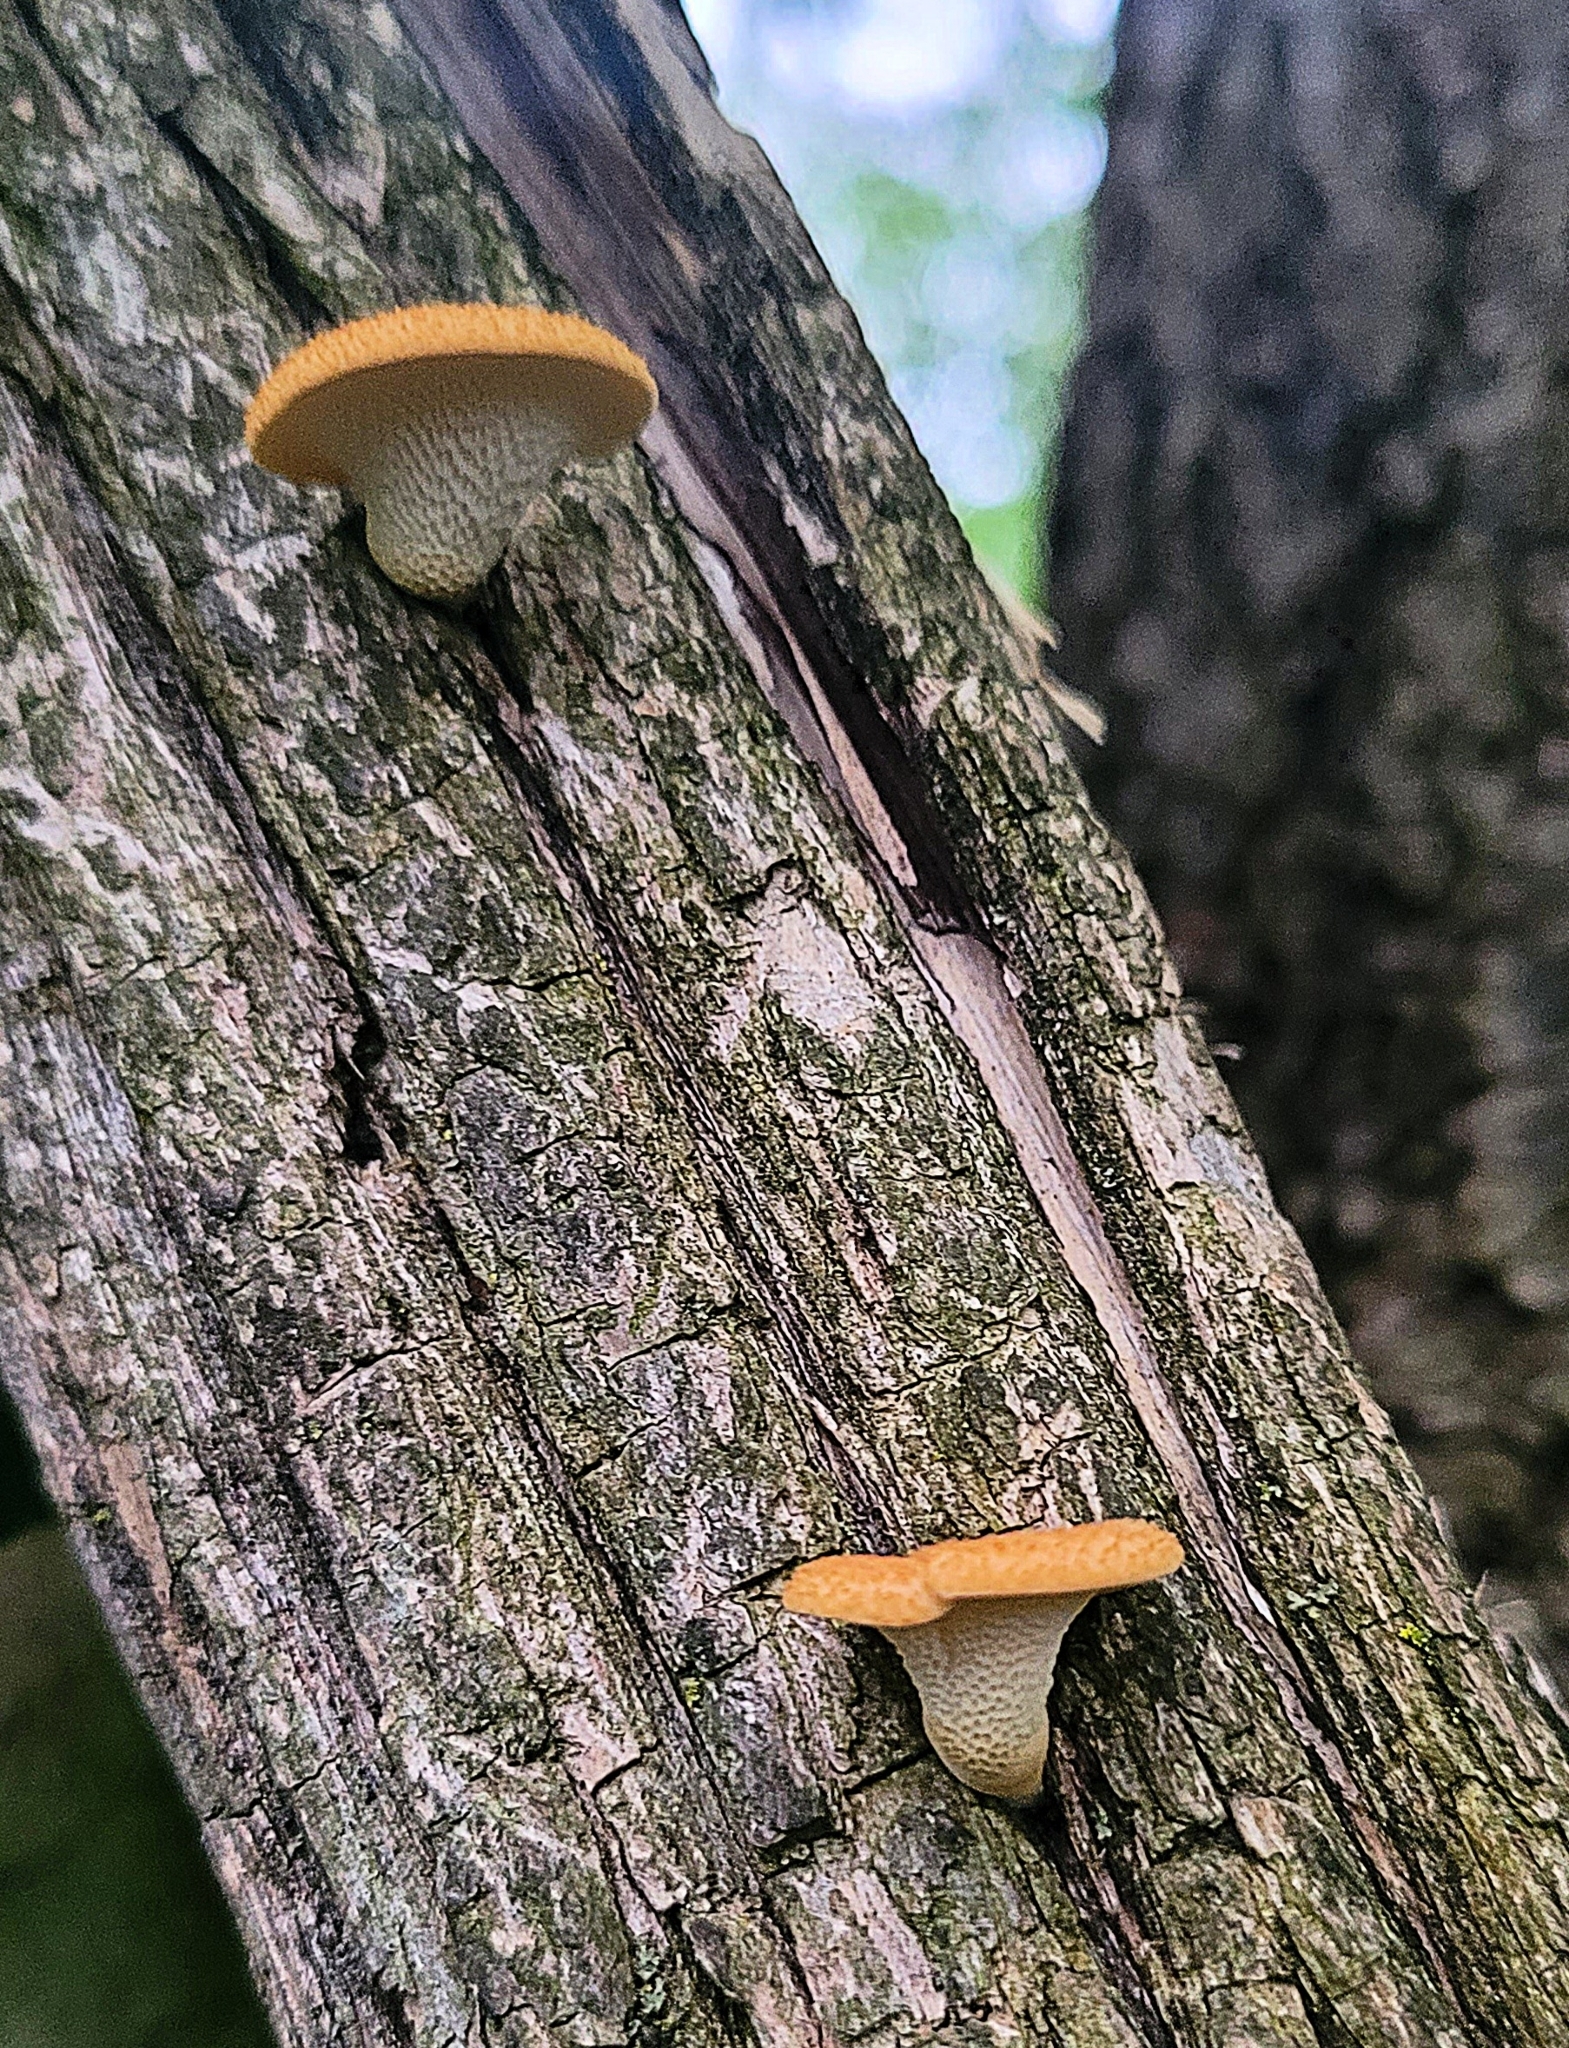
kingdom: Fungi
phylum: Basidiomycota
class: Agaricomycetes
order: Polyporales
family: Polyporaceae
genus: Neofavolus
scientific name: Neofavolus alveolaris
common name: Hexagonal-pored polypore
